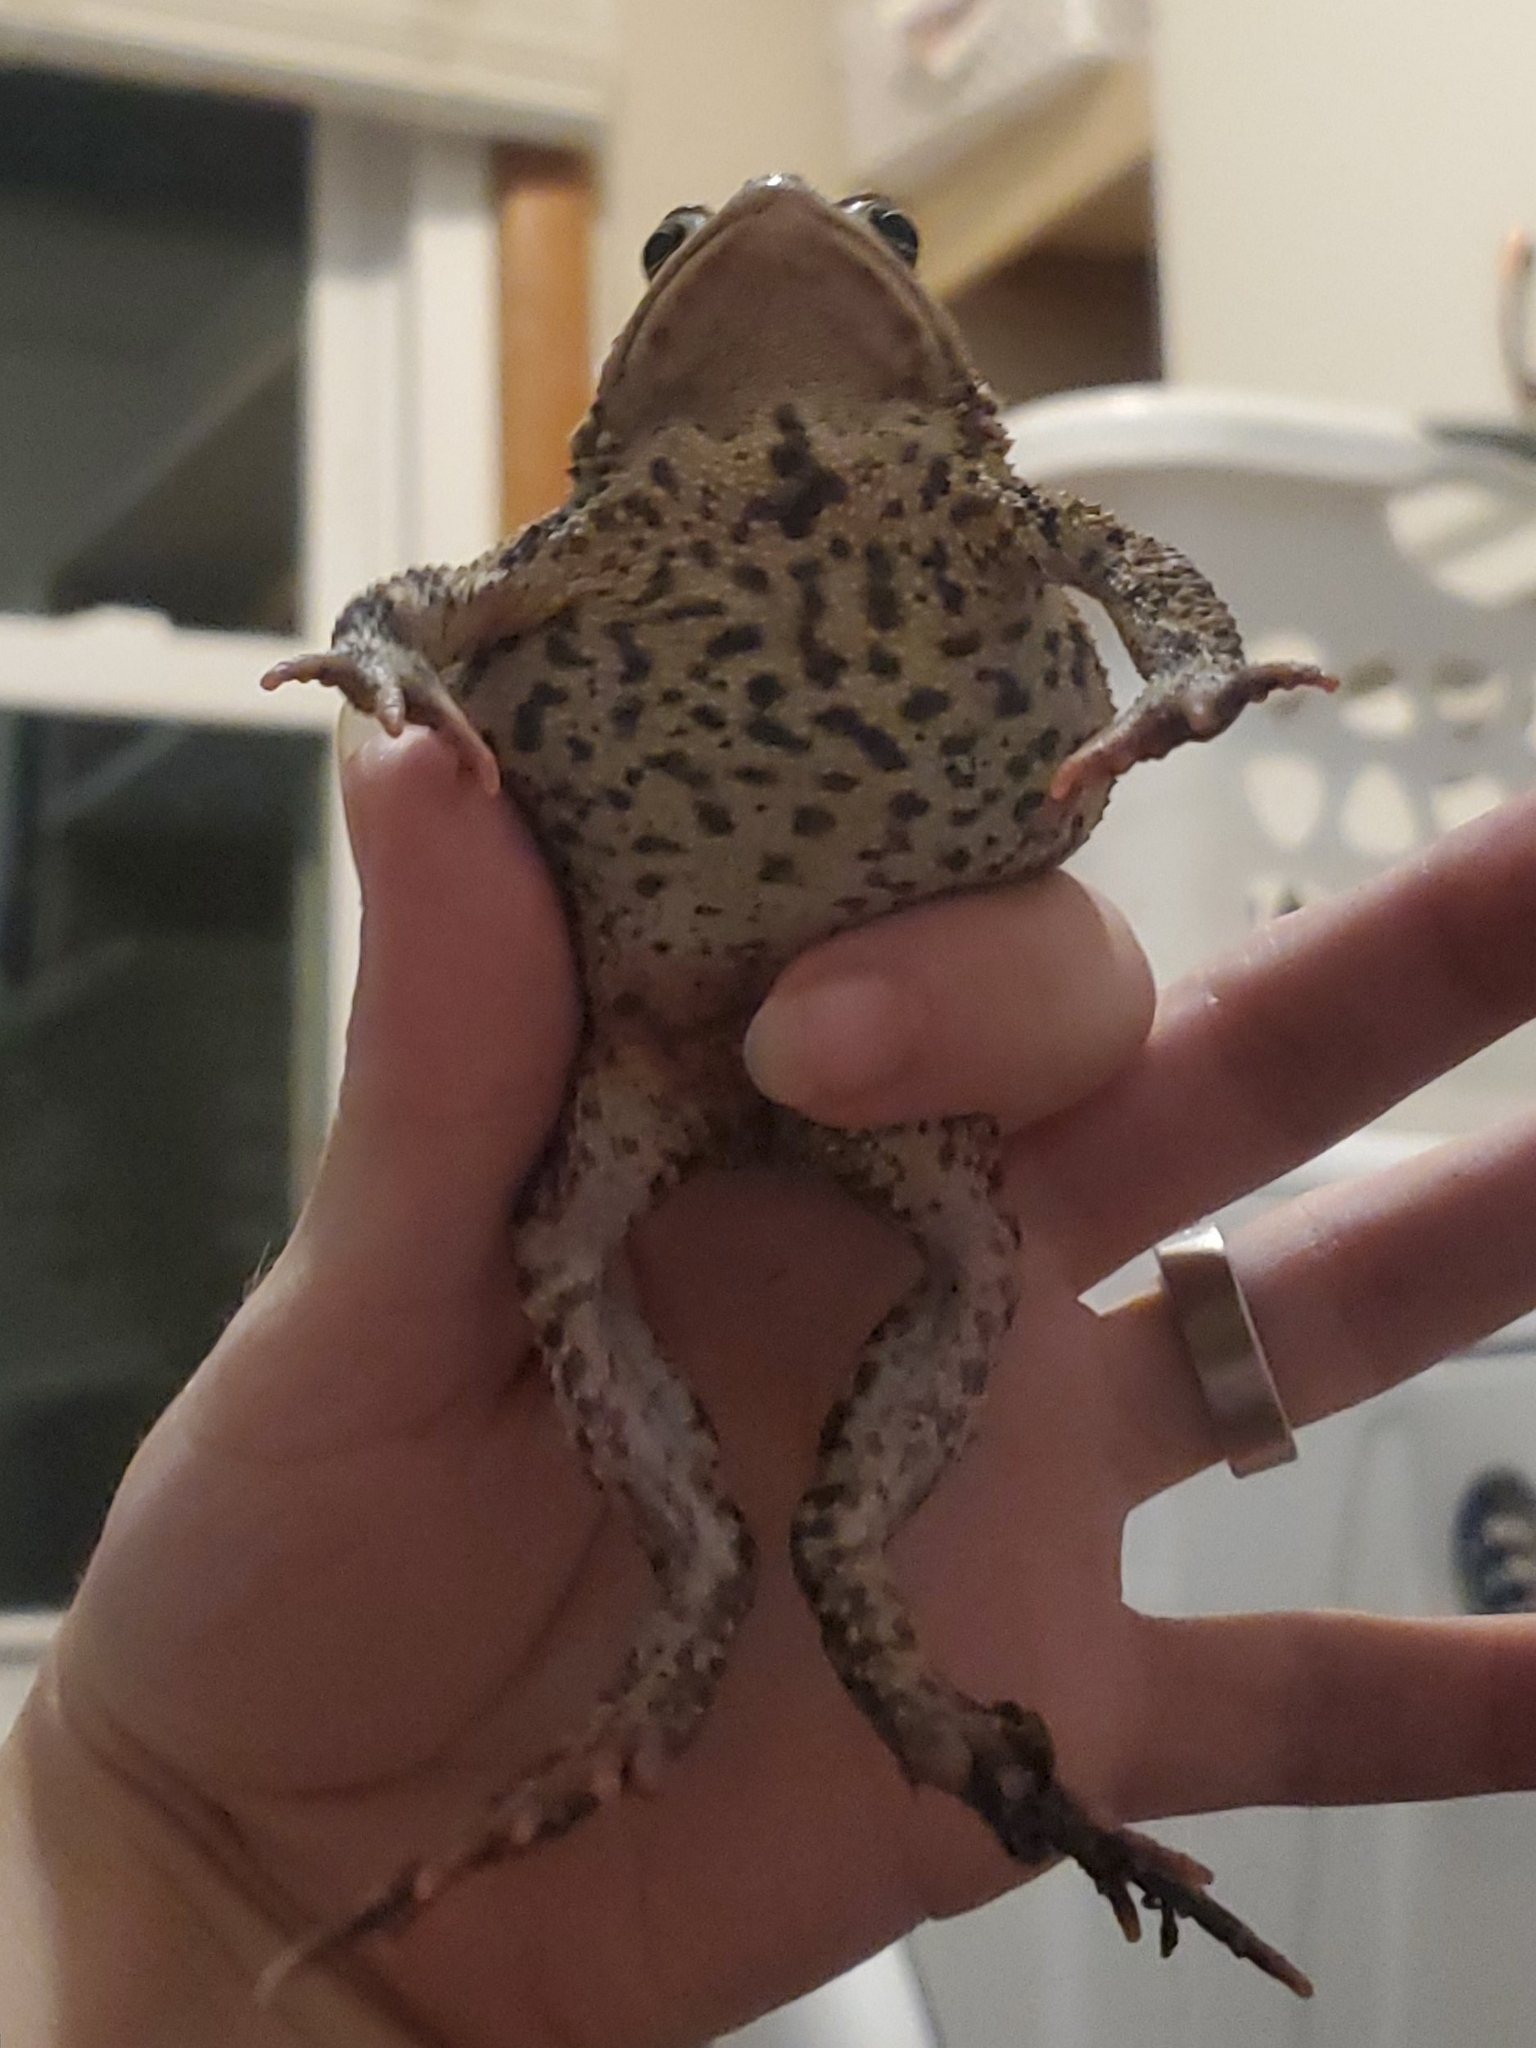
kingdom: Animalia
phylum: Chordata
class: Amphibia
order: Anura
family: Bufonidae
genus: Anaxyrus
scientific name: Anaxyrus americanus
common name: American toad
